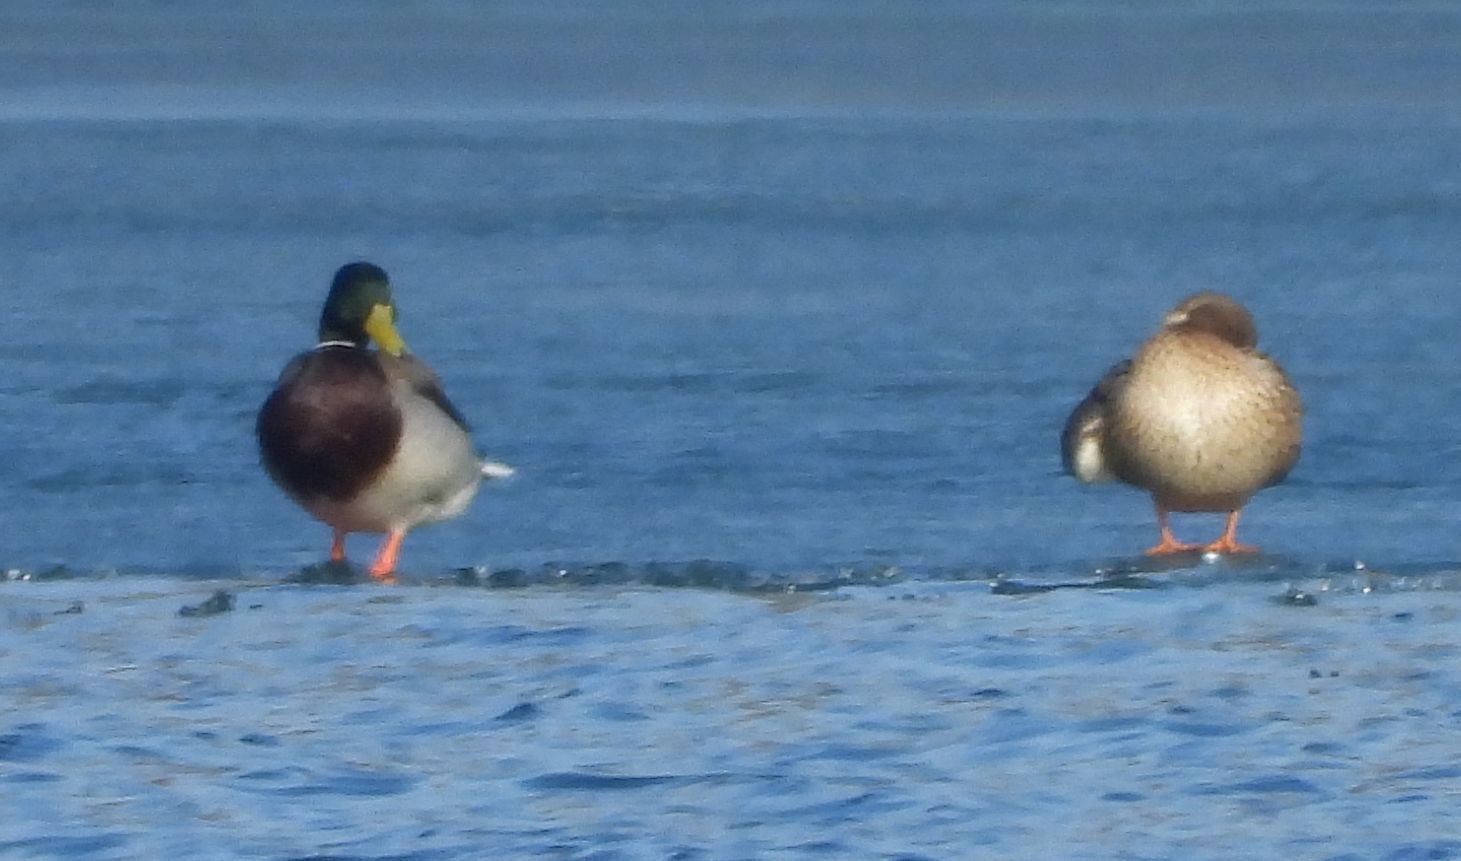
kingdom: Animalia
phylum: Chordata
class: Aves
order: Anseriformes
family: Anatidae
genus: Anas
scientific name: Anas platyrhynchos
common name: Mallard
